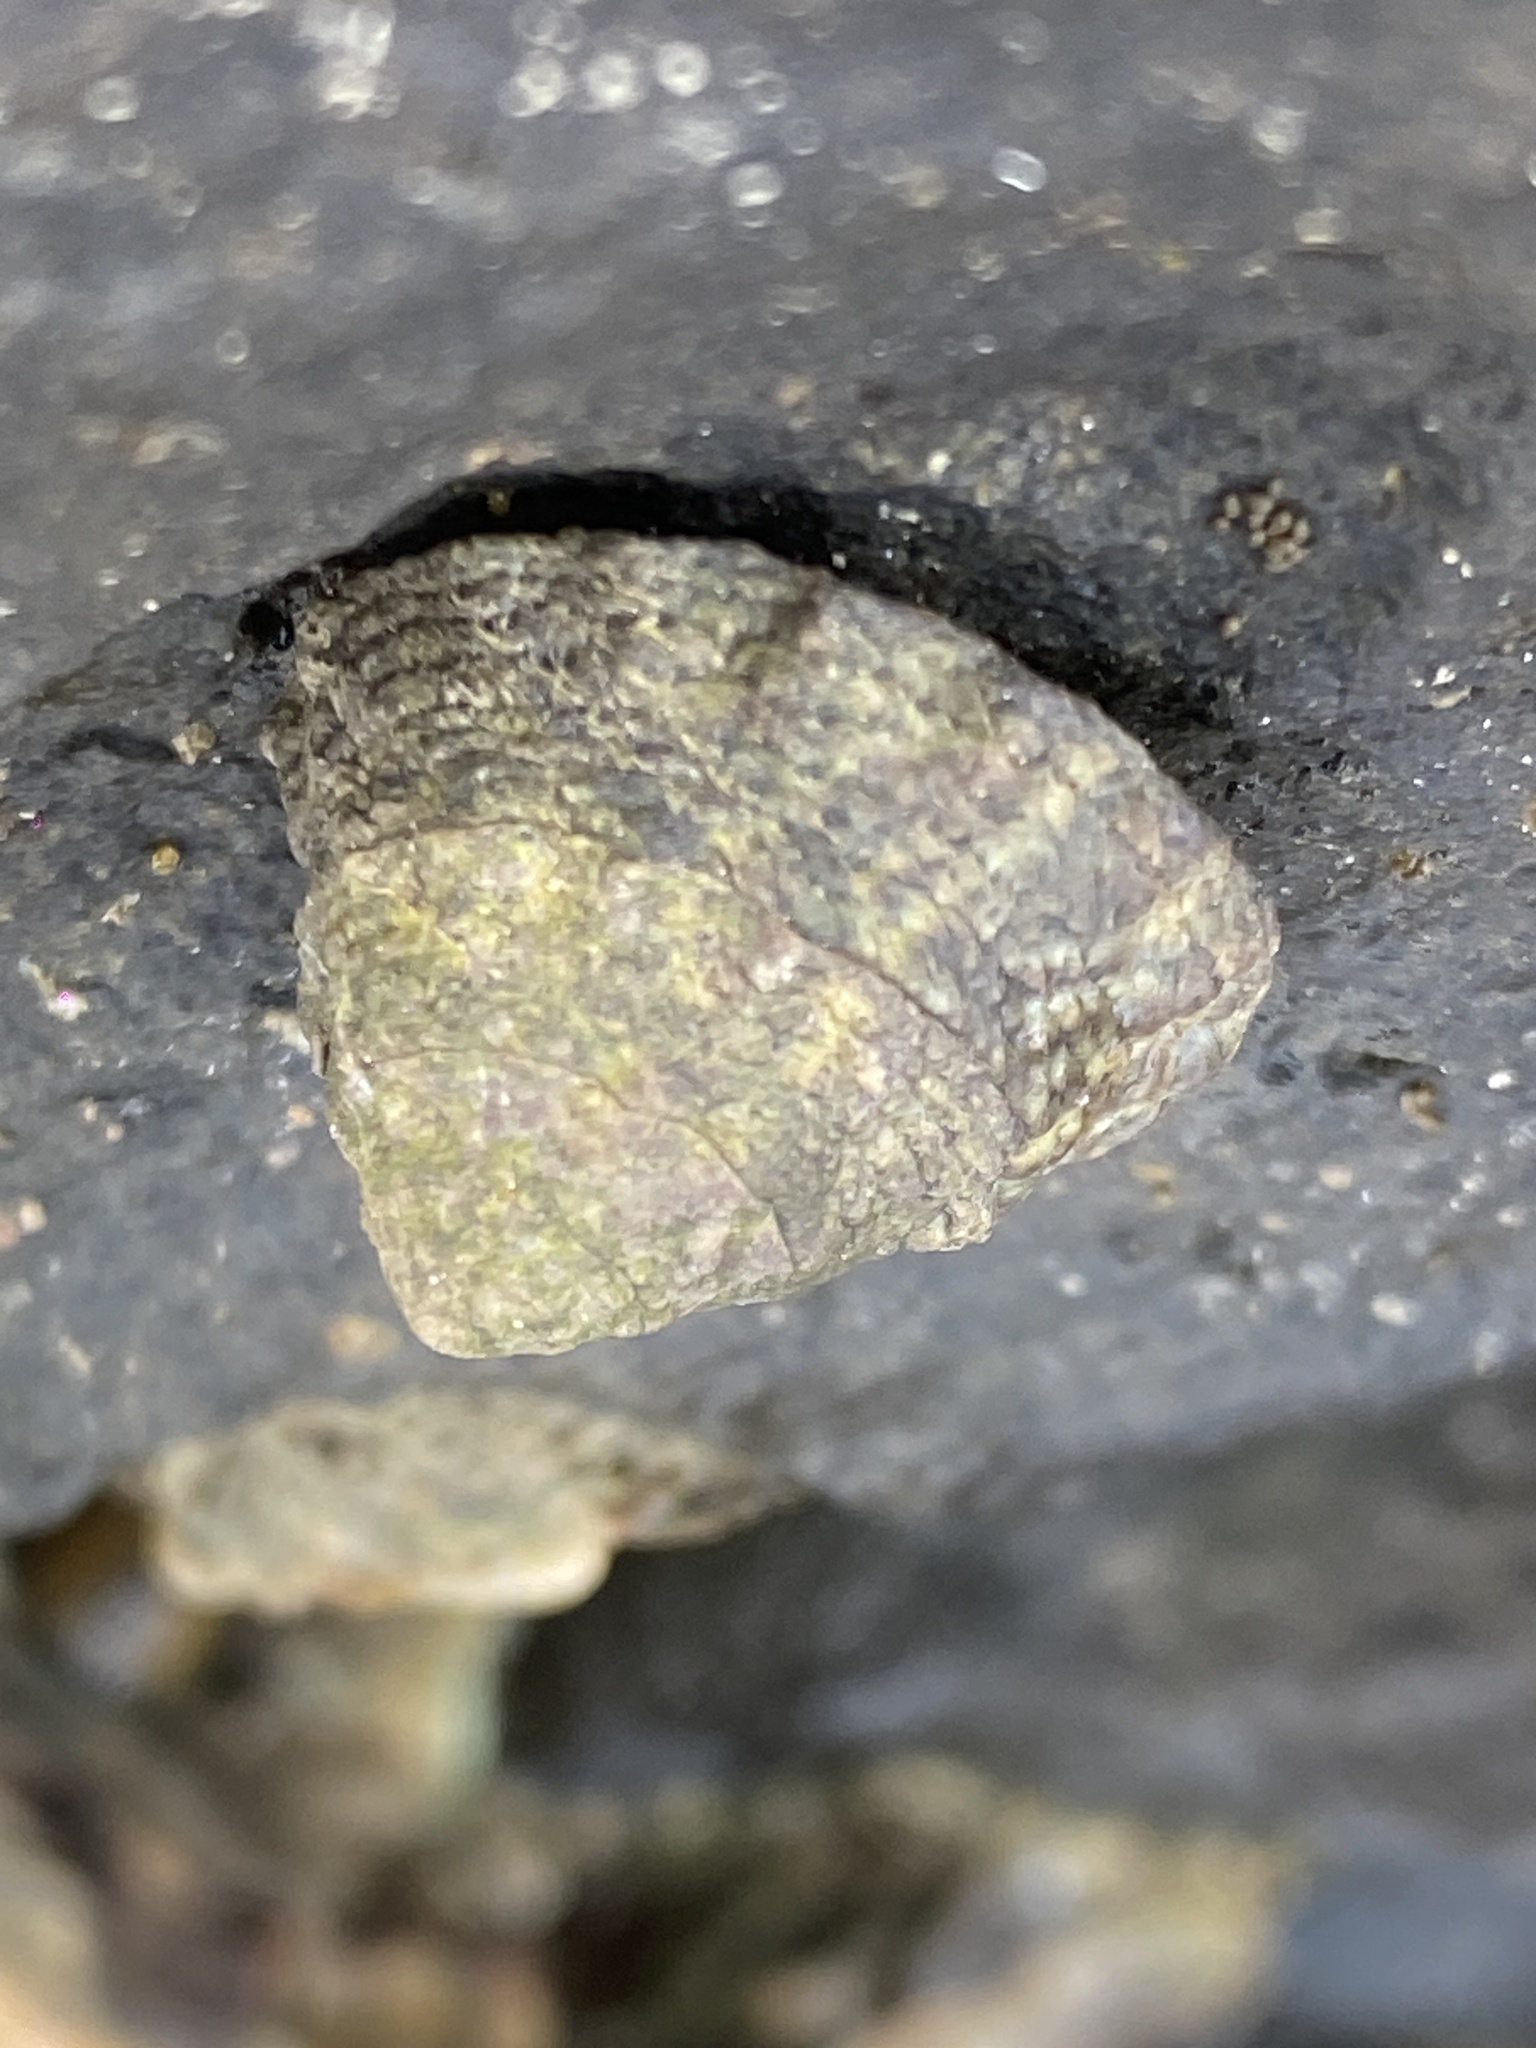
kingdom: Animalia
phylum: Mollusca
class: Gastropoda
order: Littorinimorpha
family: Littorinidae
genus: Bembicium
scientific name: Bembicium auratum
